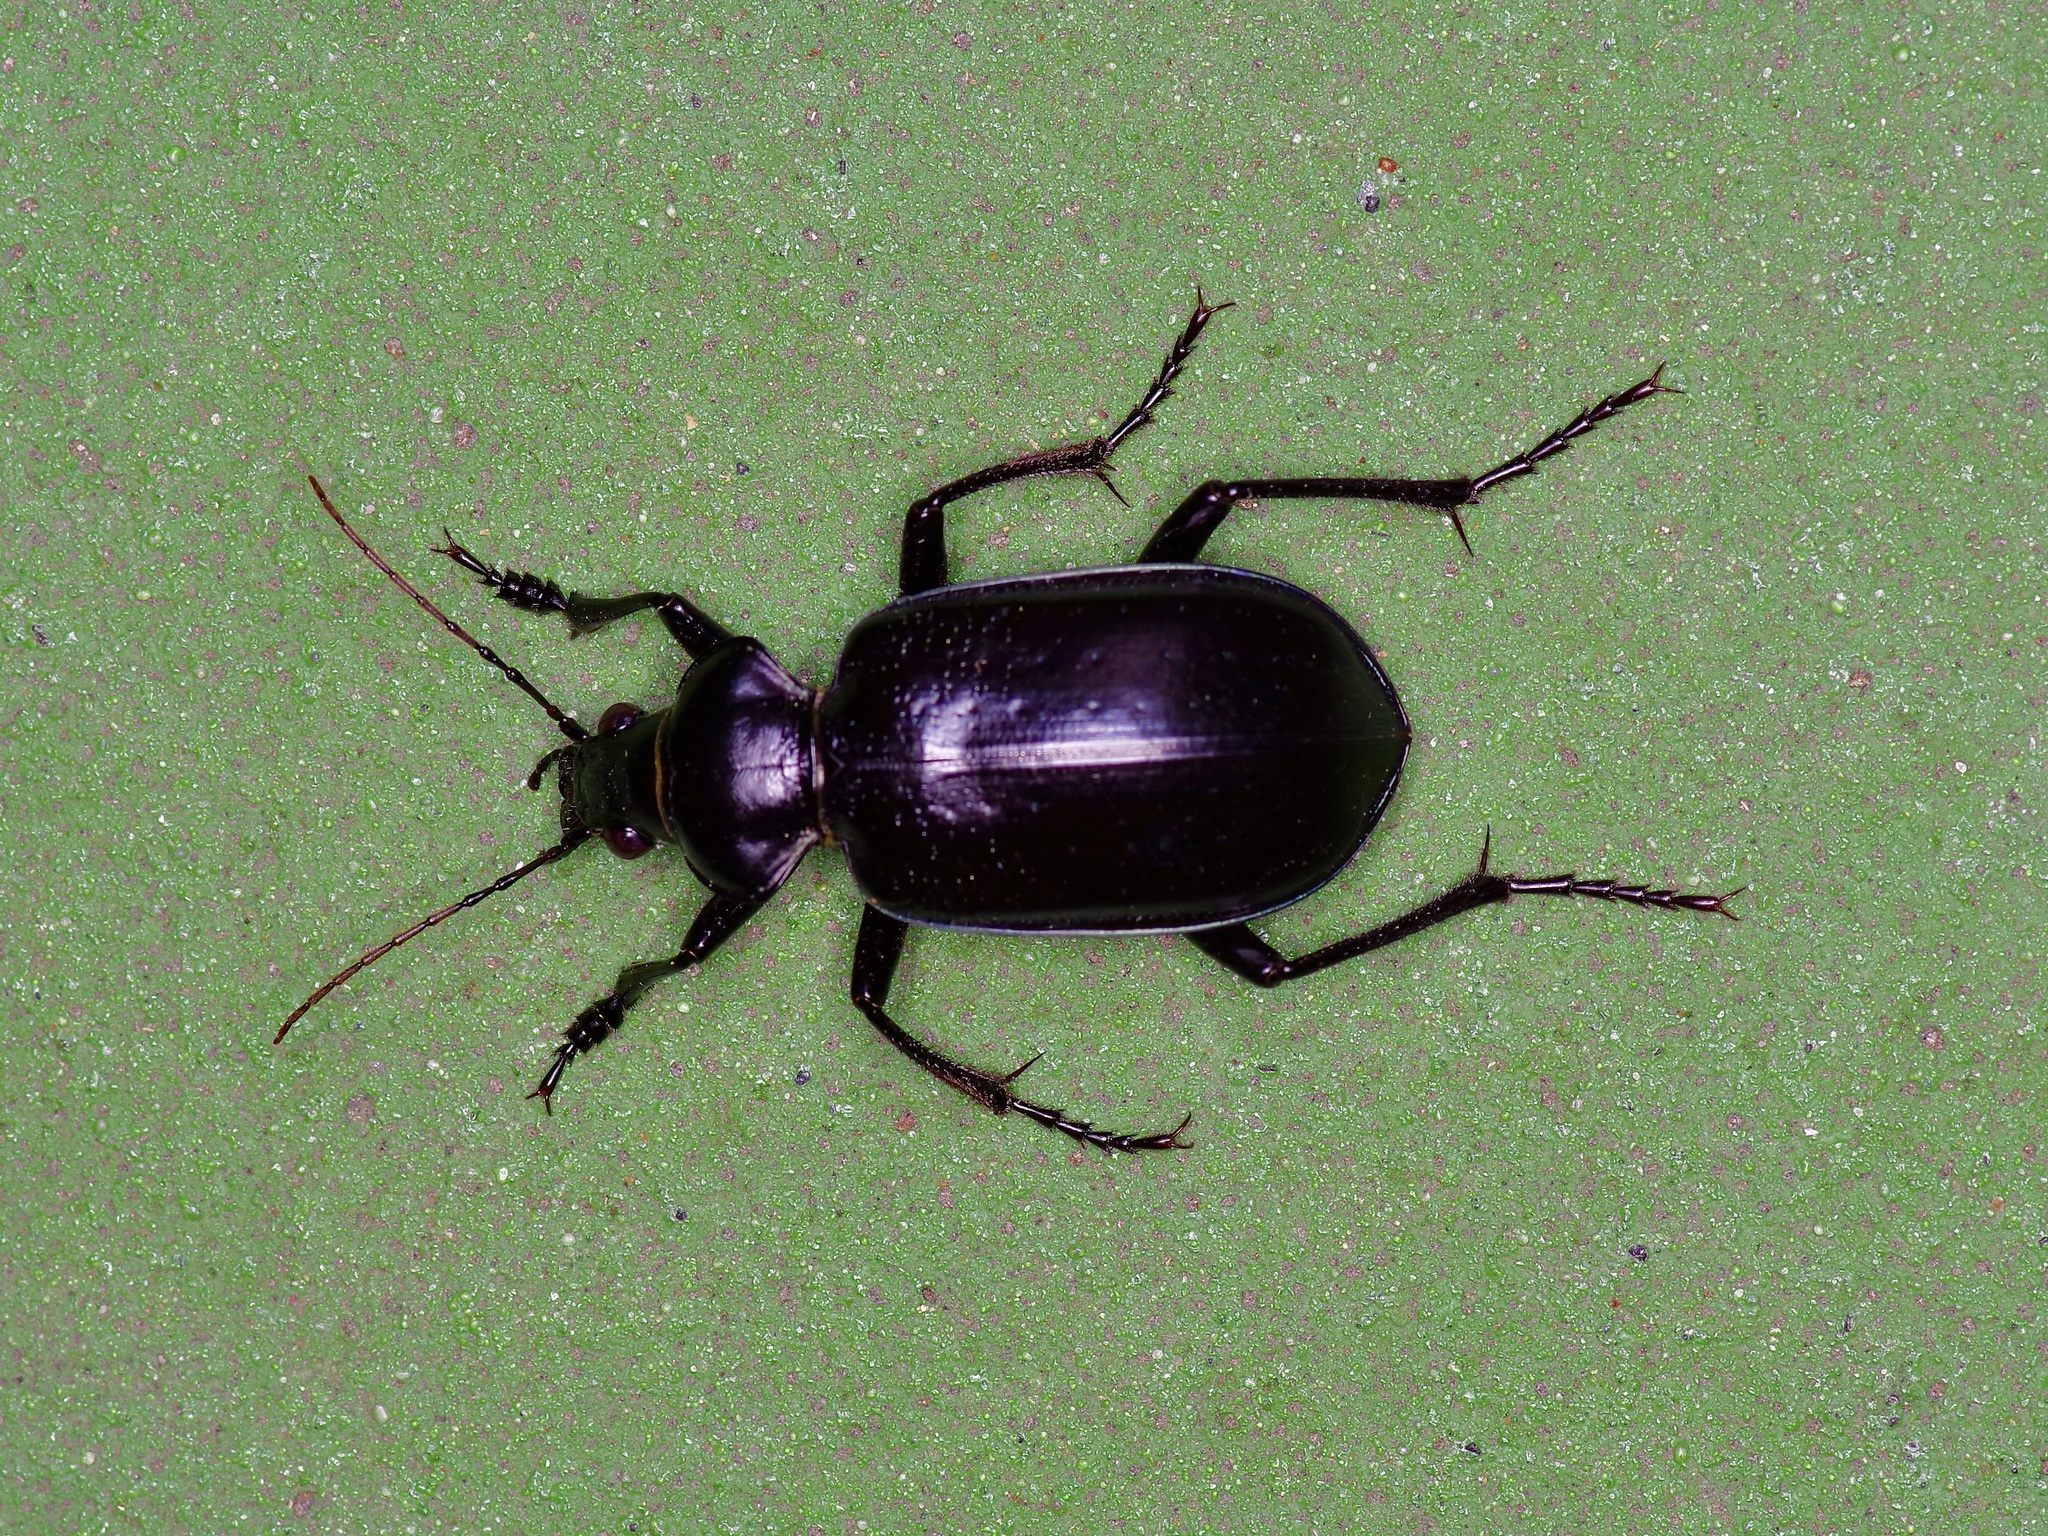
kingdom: Animalia
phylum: Arthropoda
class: Insecta
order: Coleoptera
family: Carabidae
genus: Calosoma
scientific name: Calosoma marginale
